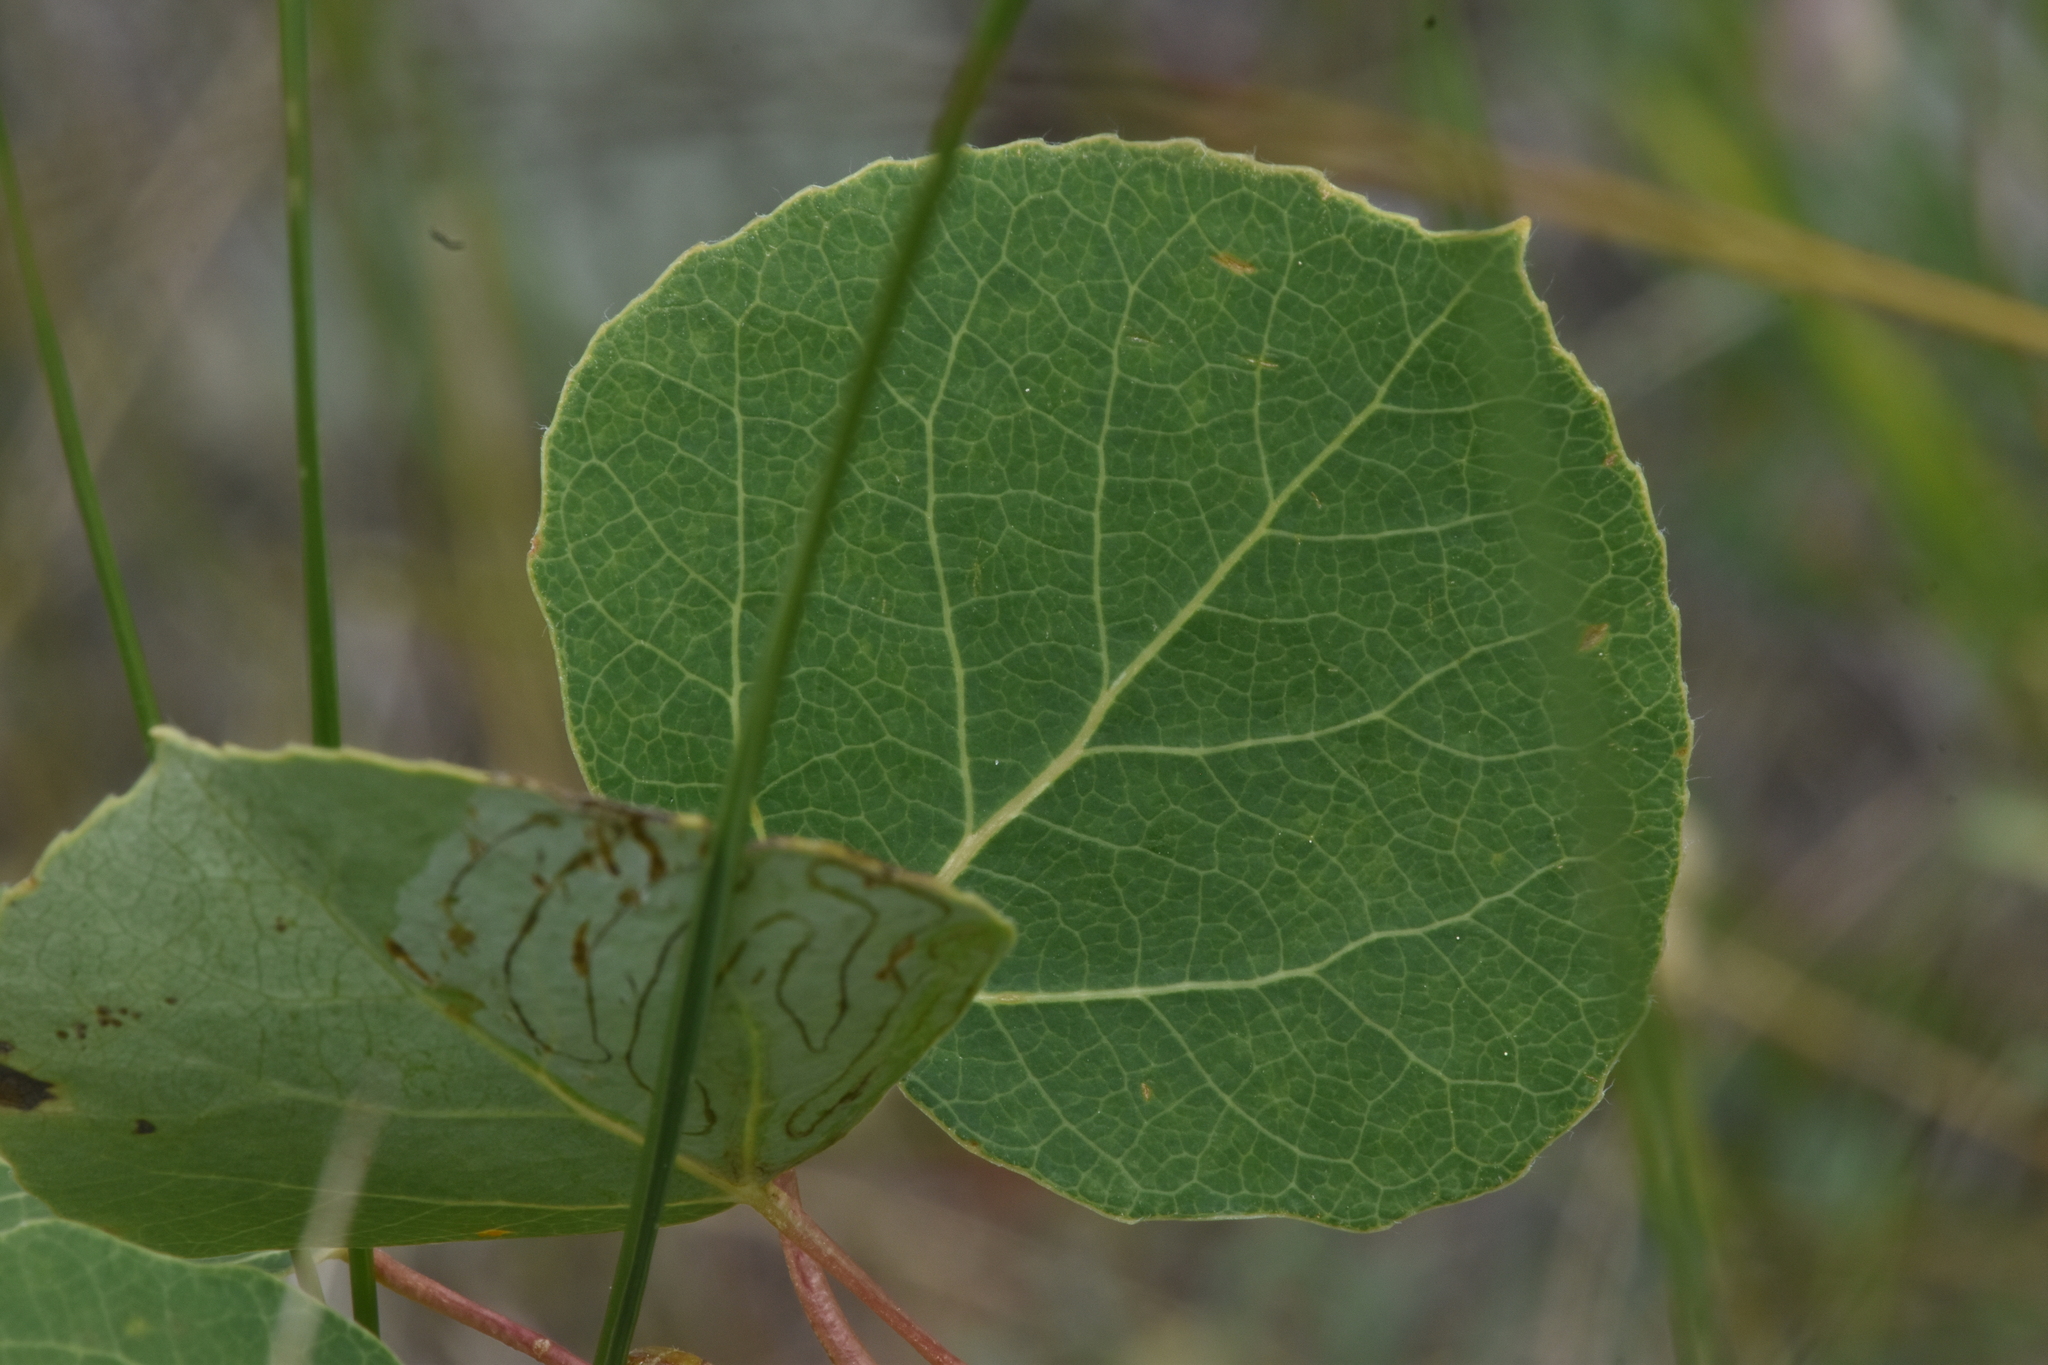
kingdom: Plantae
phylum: Tracheophyta
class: Magnoliopsida
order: Malpighiales
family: Salicaceae
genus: Populus
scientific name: Populus tremuloides
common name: Quaking aspen
